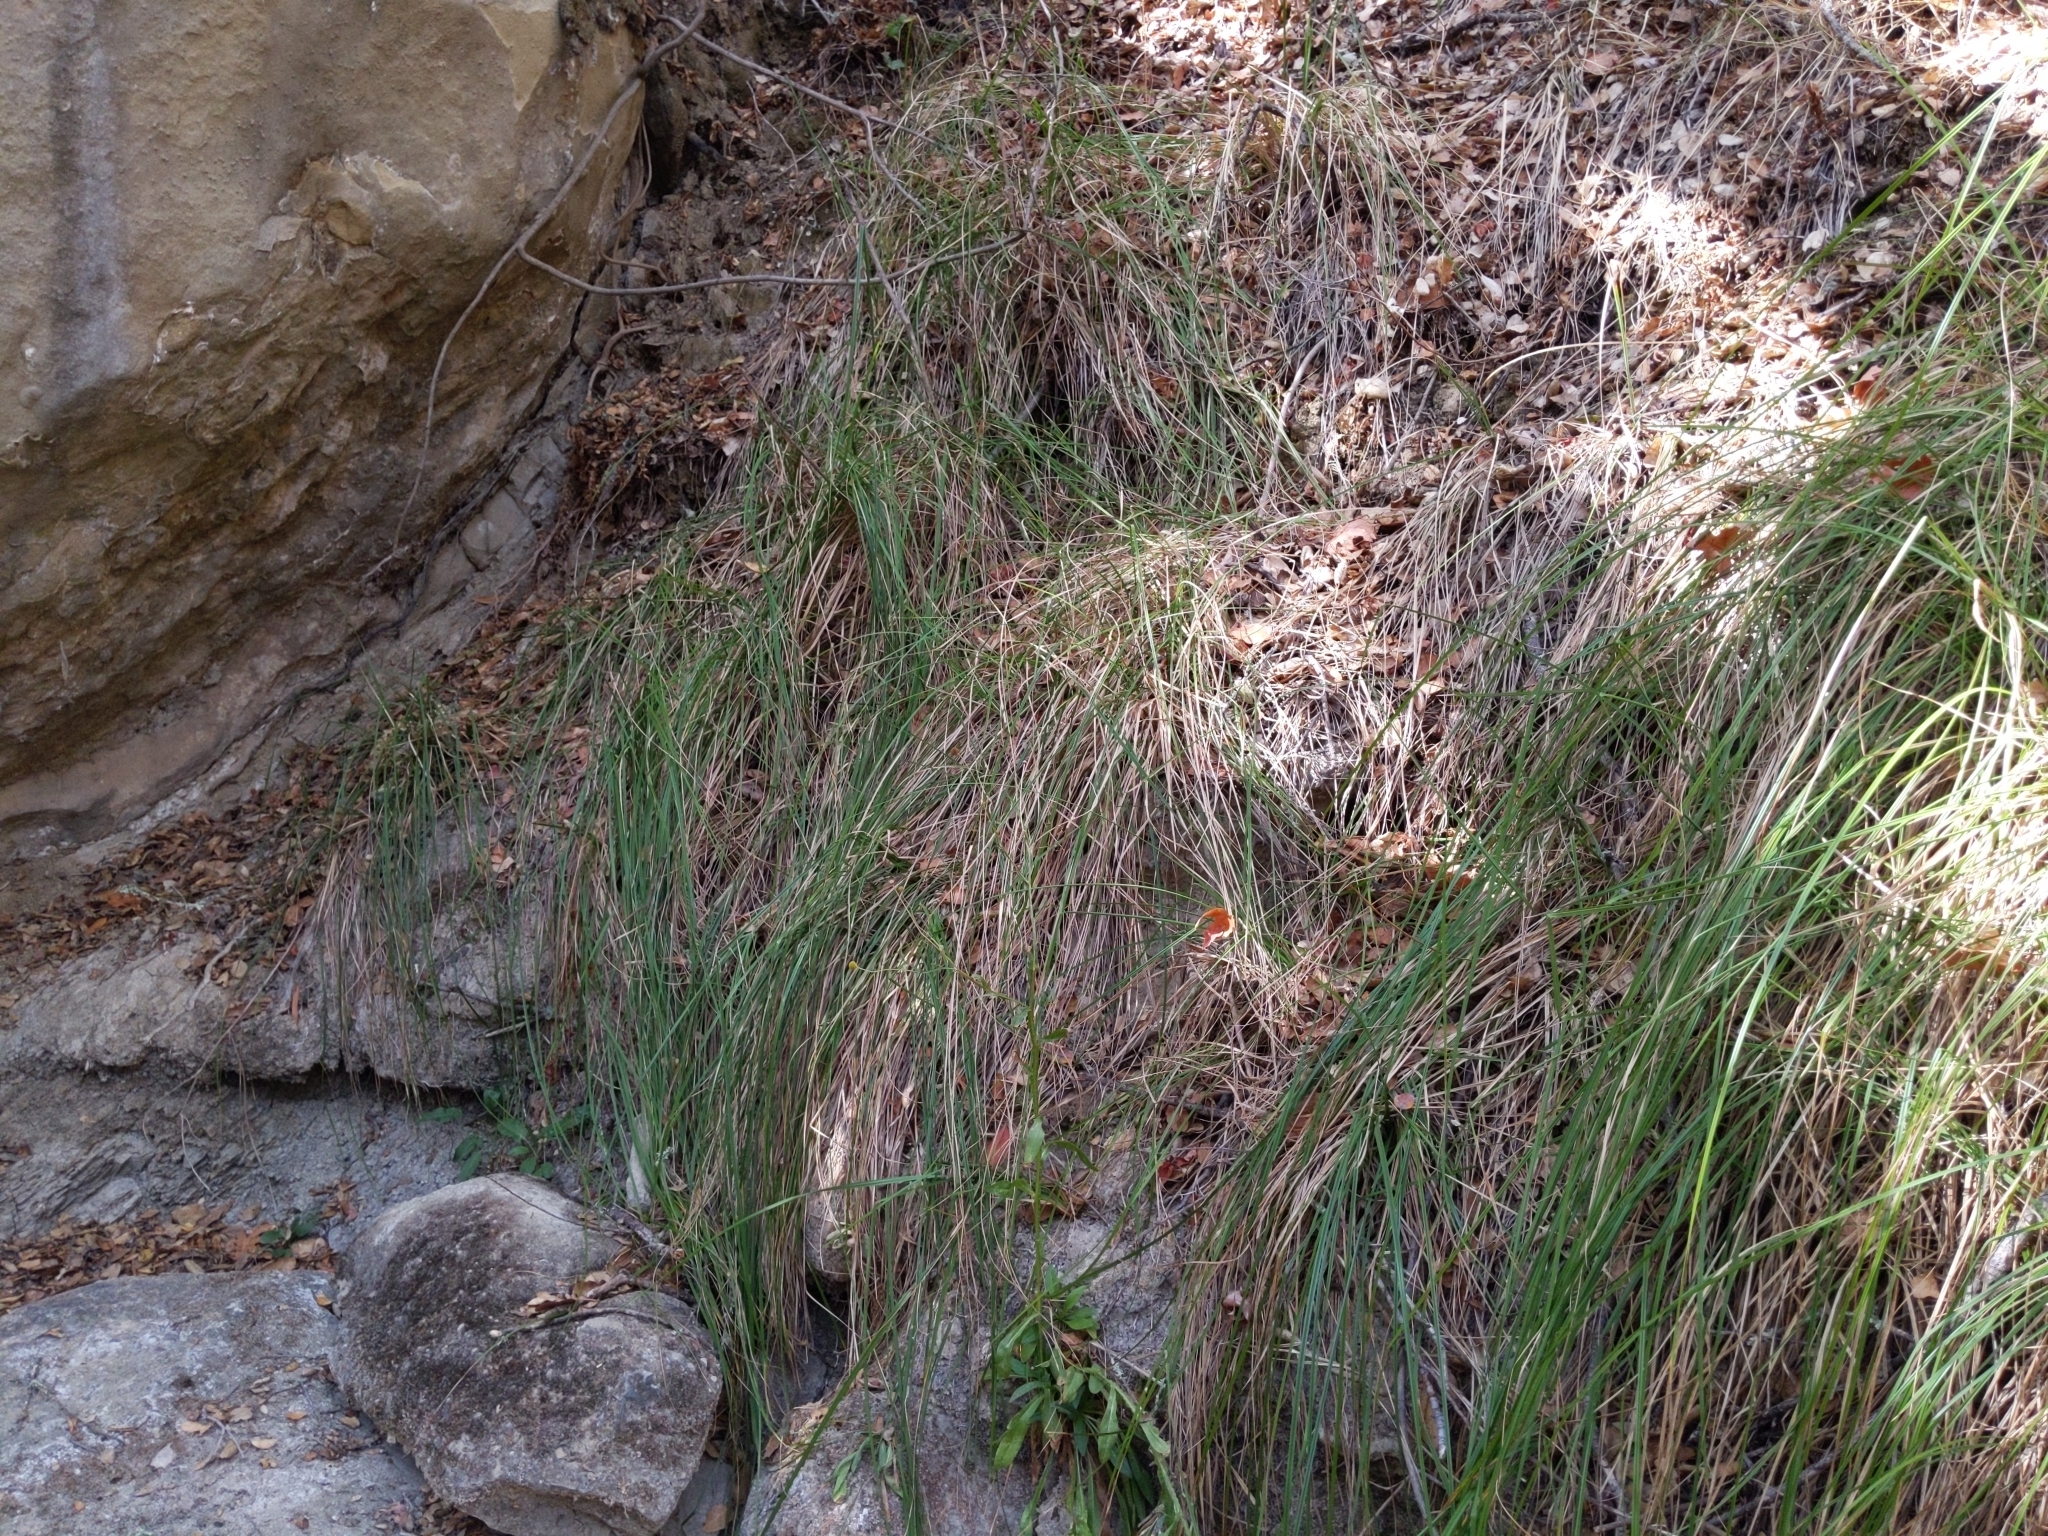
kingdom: Plantae
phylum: Tracheophyta
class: Liliopsida
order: Poales
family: Cyperaceae
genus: Carex
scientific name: Carex barbarae
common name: Santa barbara sedge
